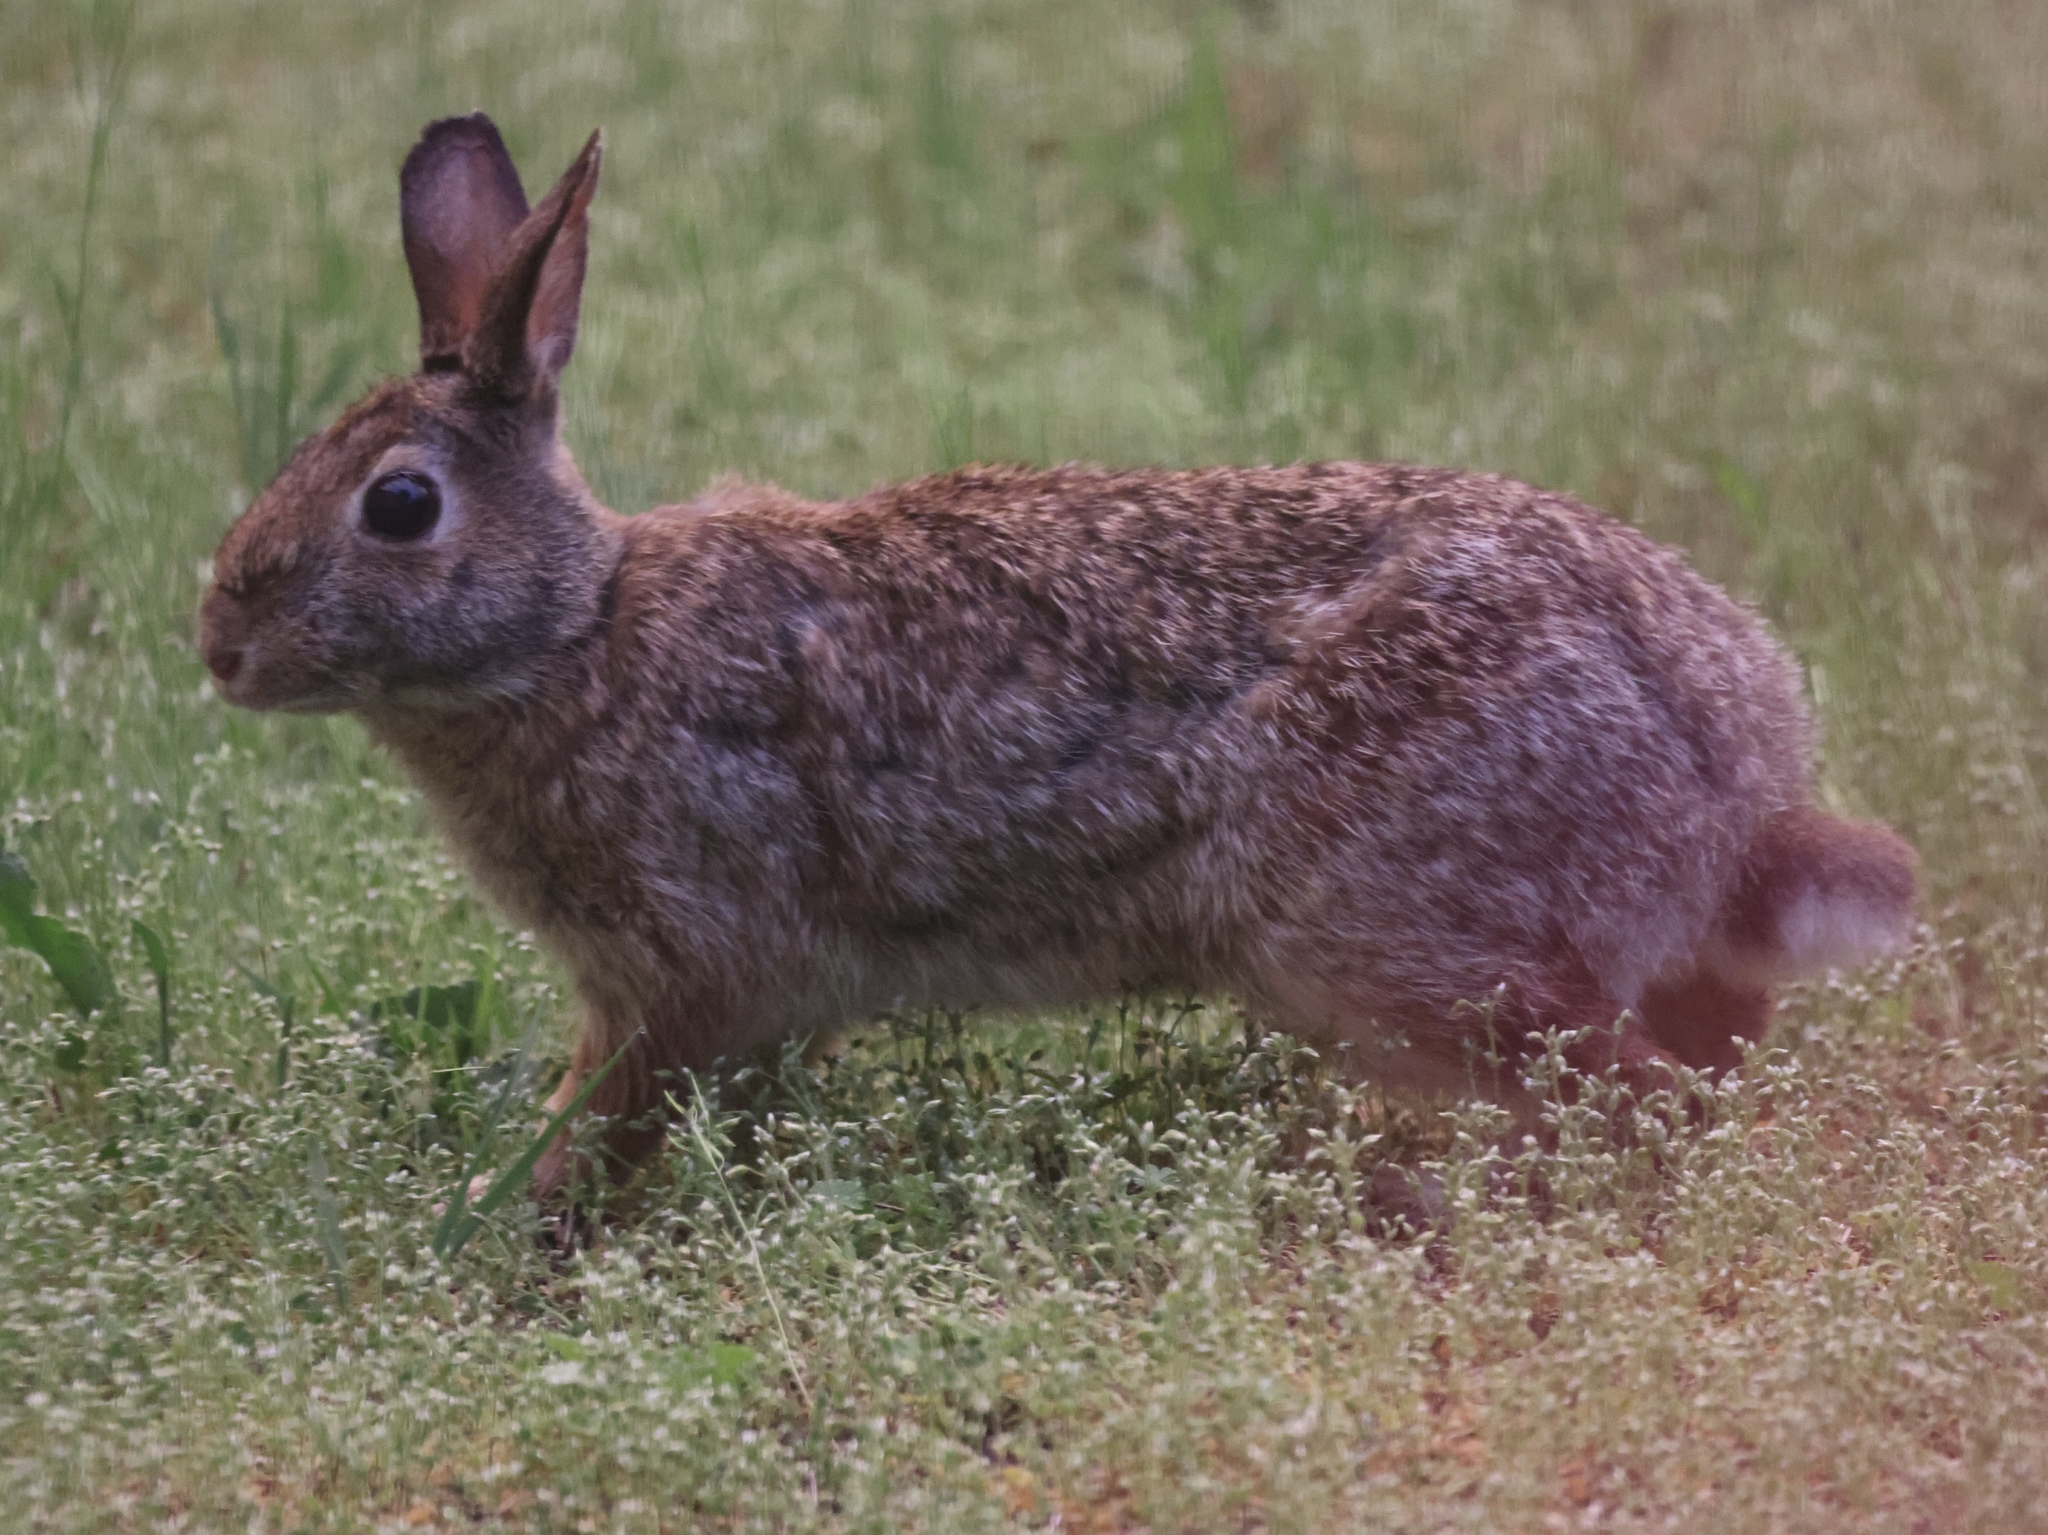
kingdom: Animalia
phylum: Chordata
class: Mammalia
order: Lagomorpha
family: Leporidae
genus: Sylvilagus
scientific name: Sylvilagus floridanus
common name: Eastern cottontail
